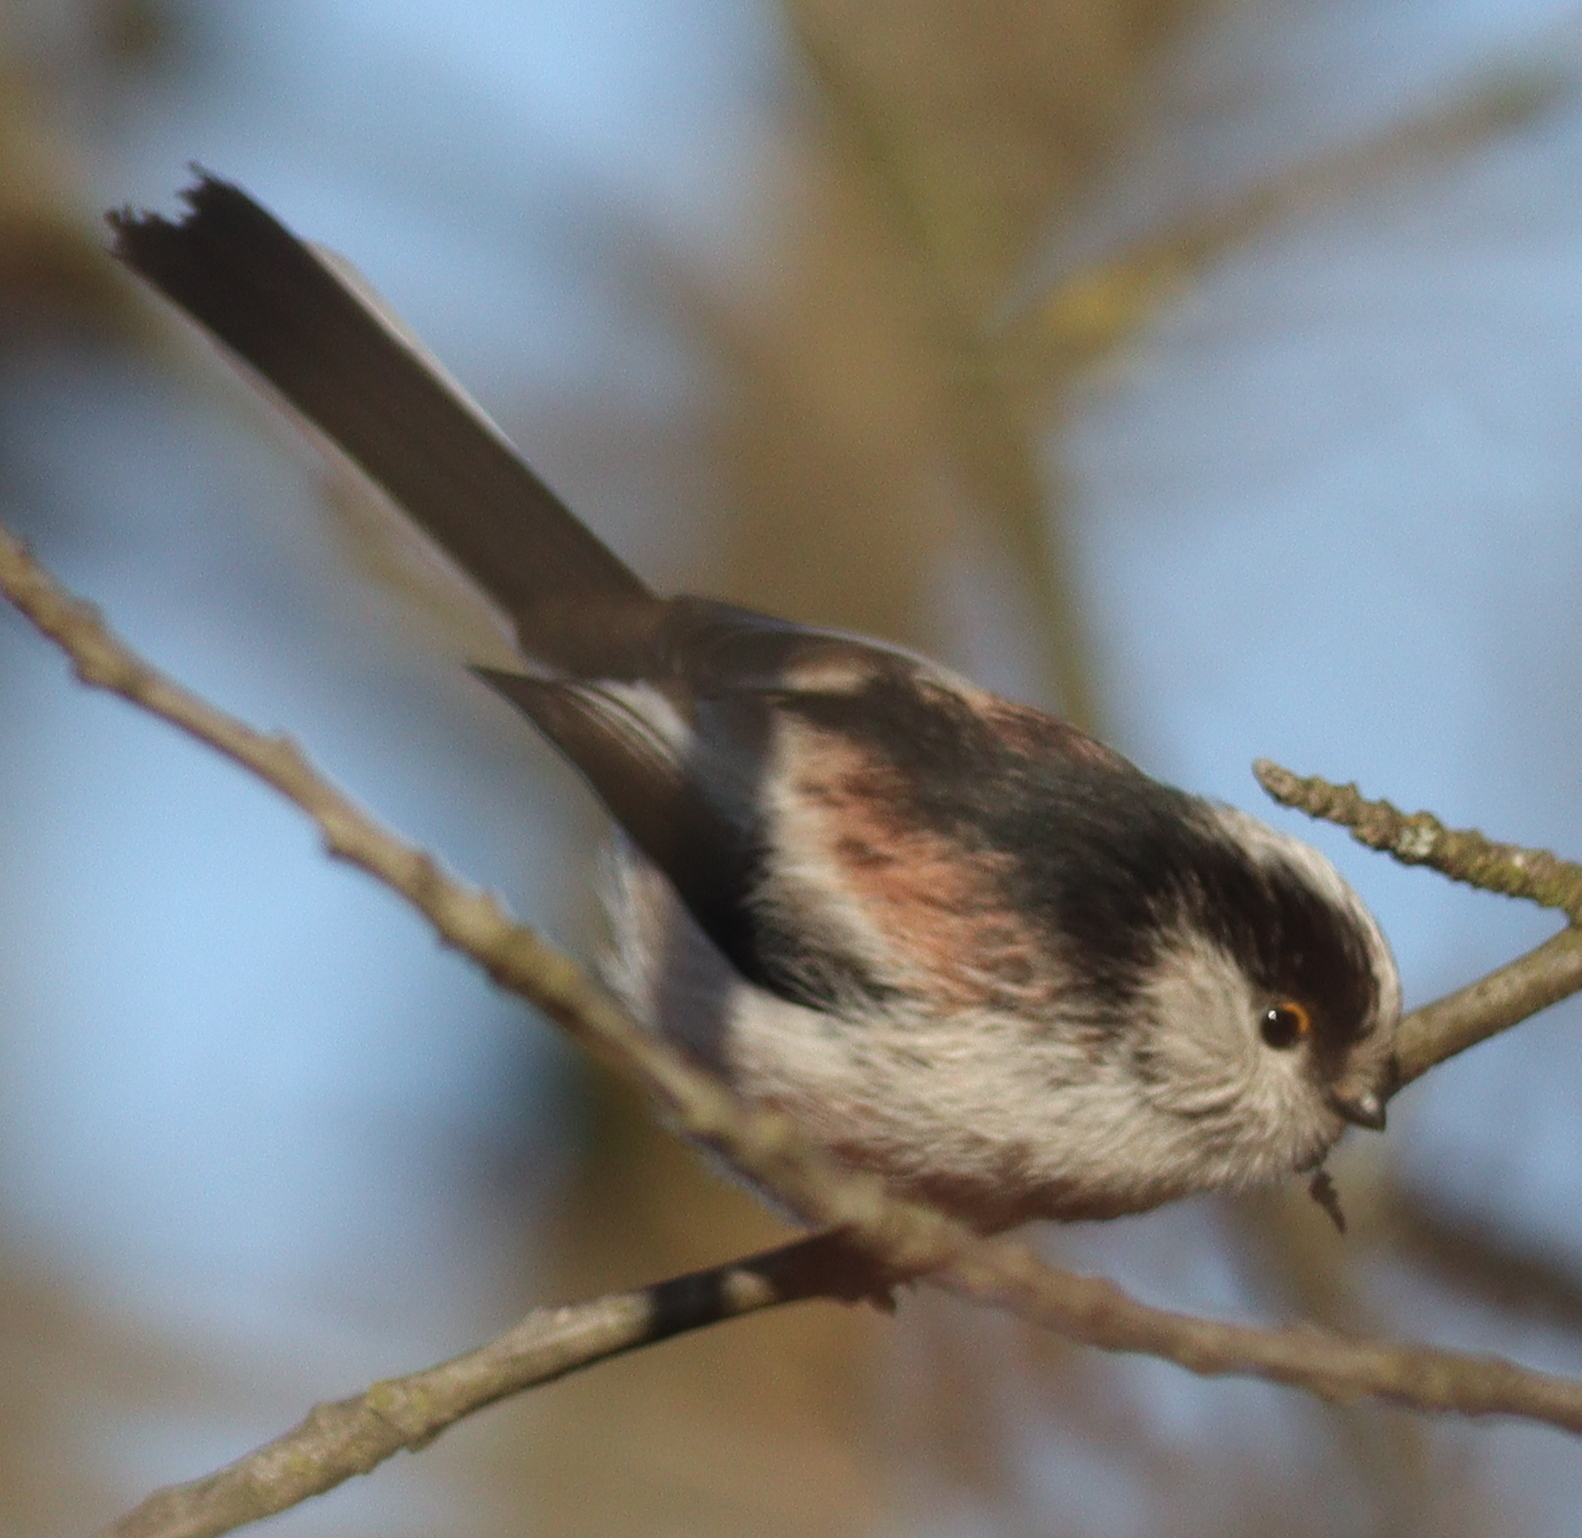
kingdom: Animalia
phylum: Chordata
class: Aves
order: Passeriformes
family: Aegithalidae
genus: Aegithalos
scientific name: Aegithalos caudatus
